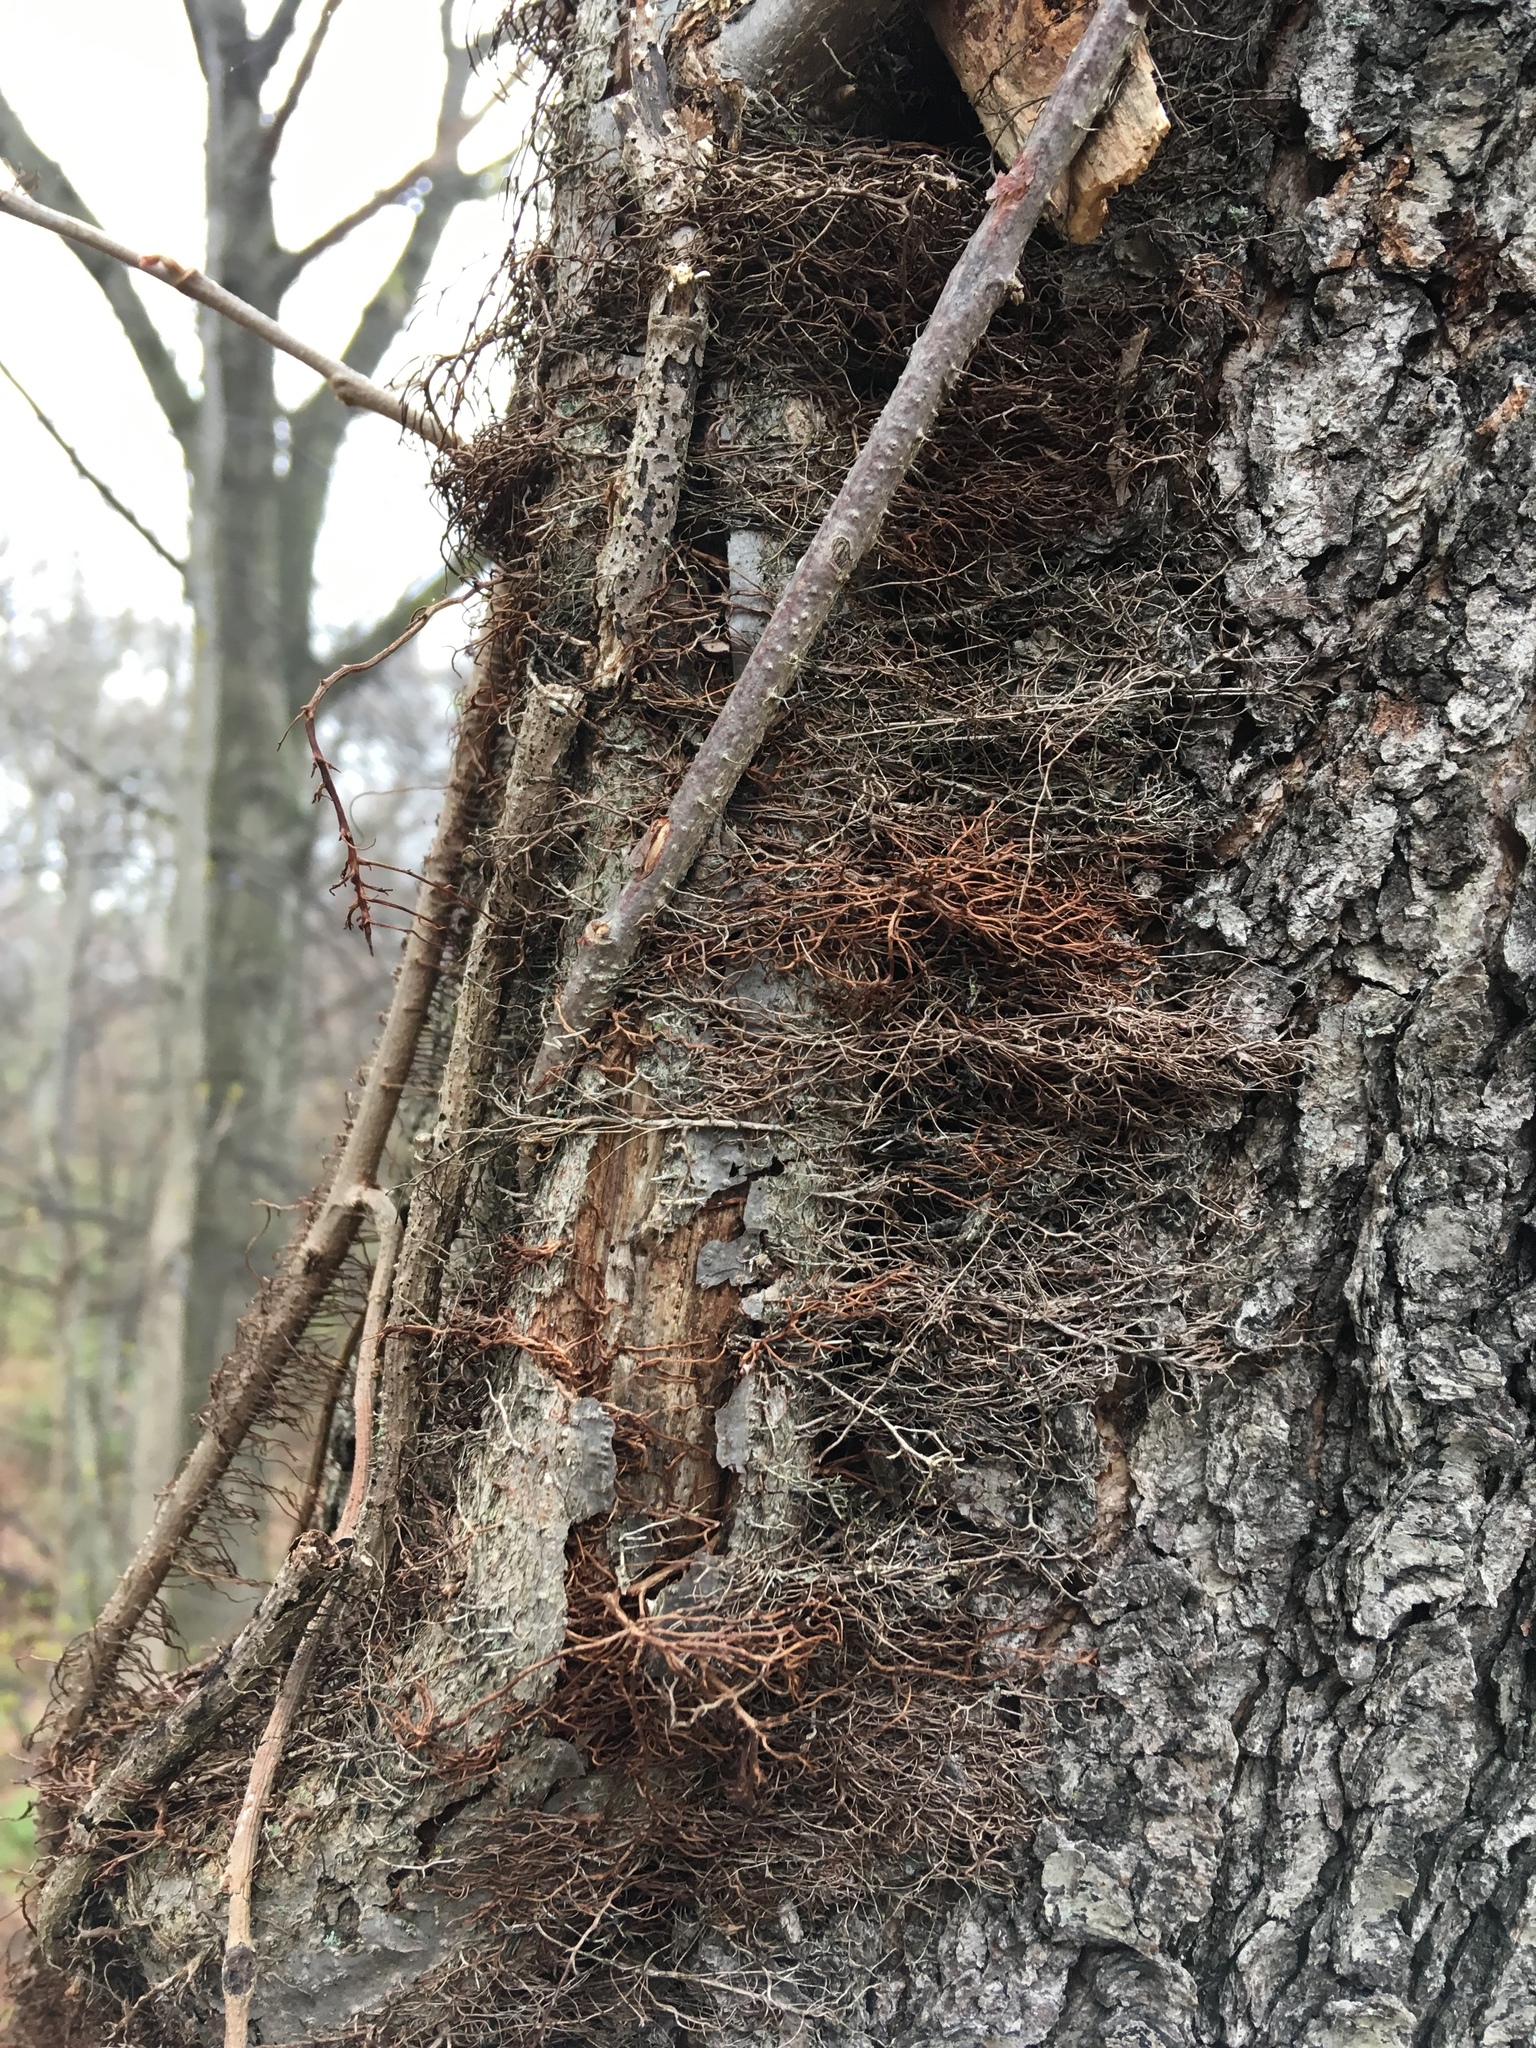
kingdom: Plantae
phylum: Tracheophyta
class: Magnoliopsida
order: Sapindales
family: Anacardiaceae
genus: Toxicodendron
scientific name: Toxicodendron radicans
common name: Poison ivy
